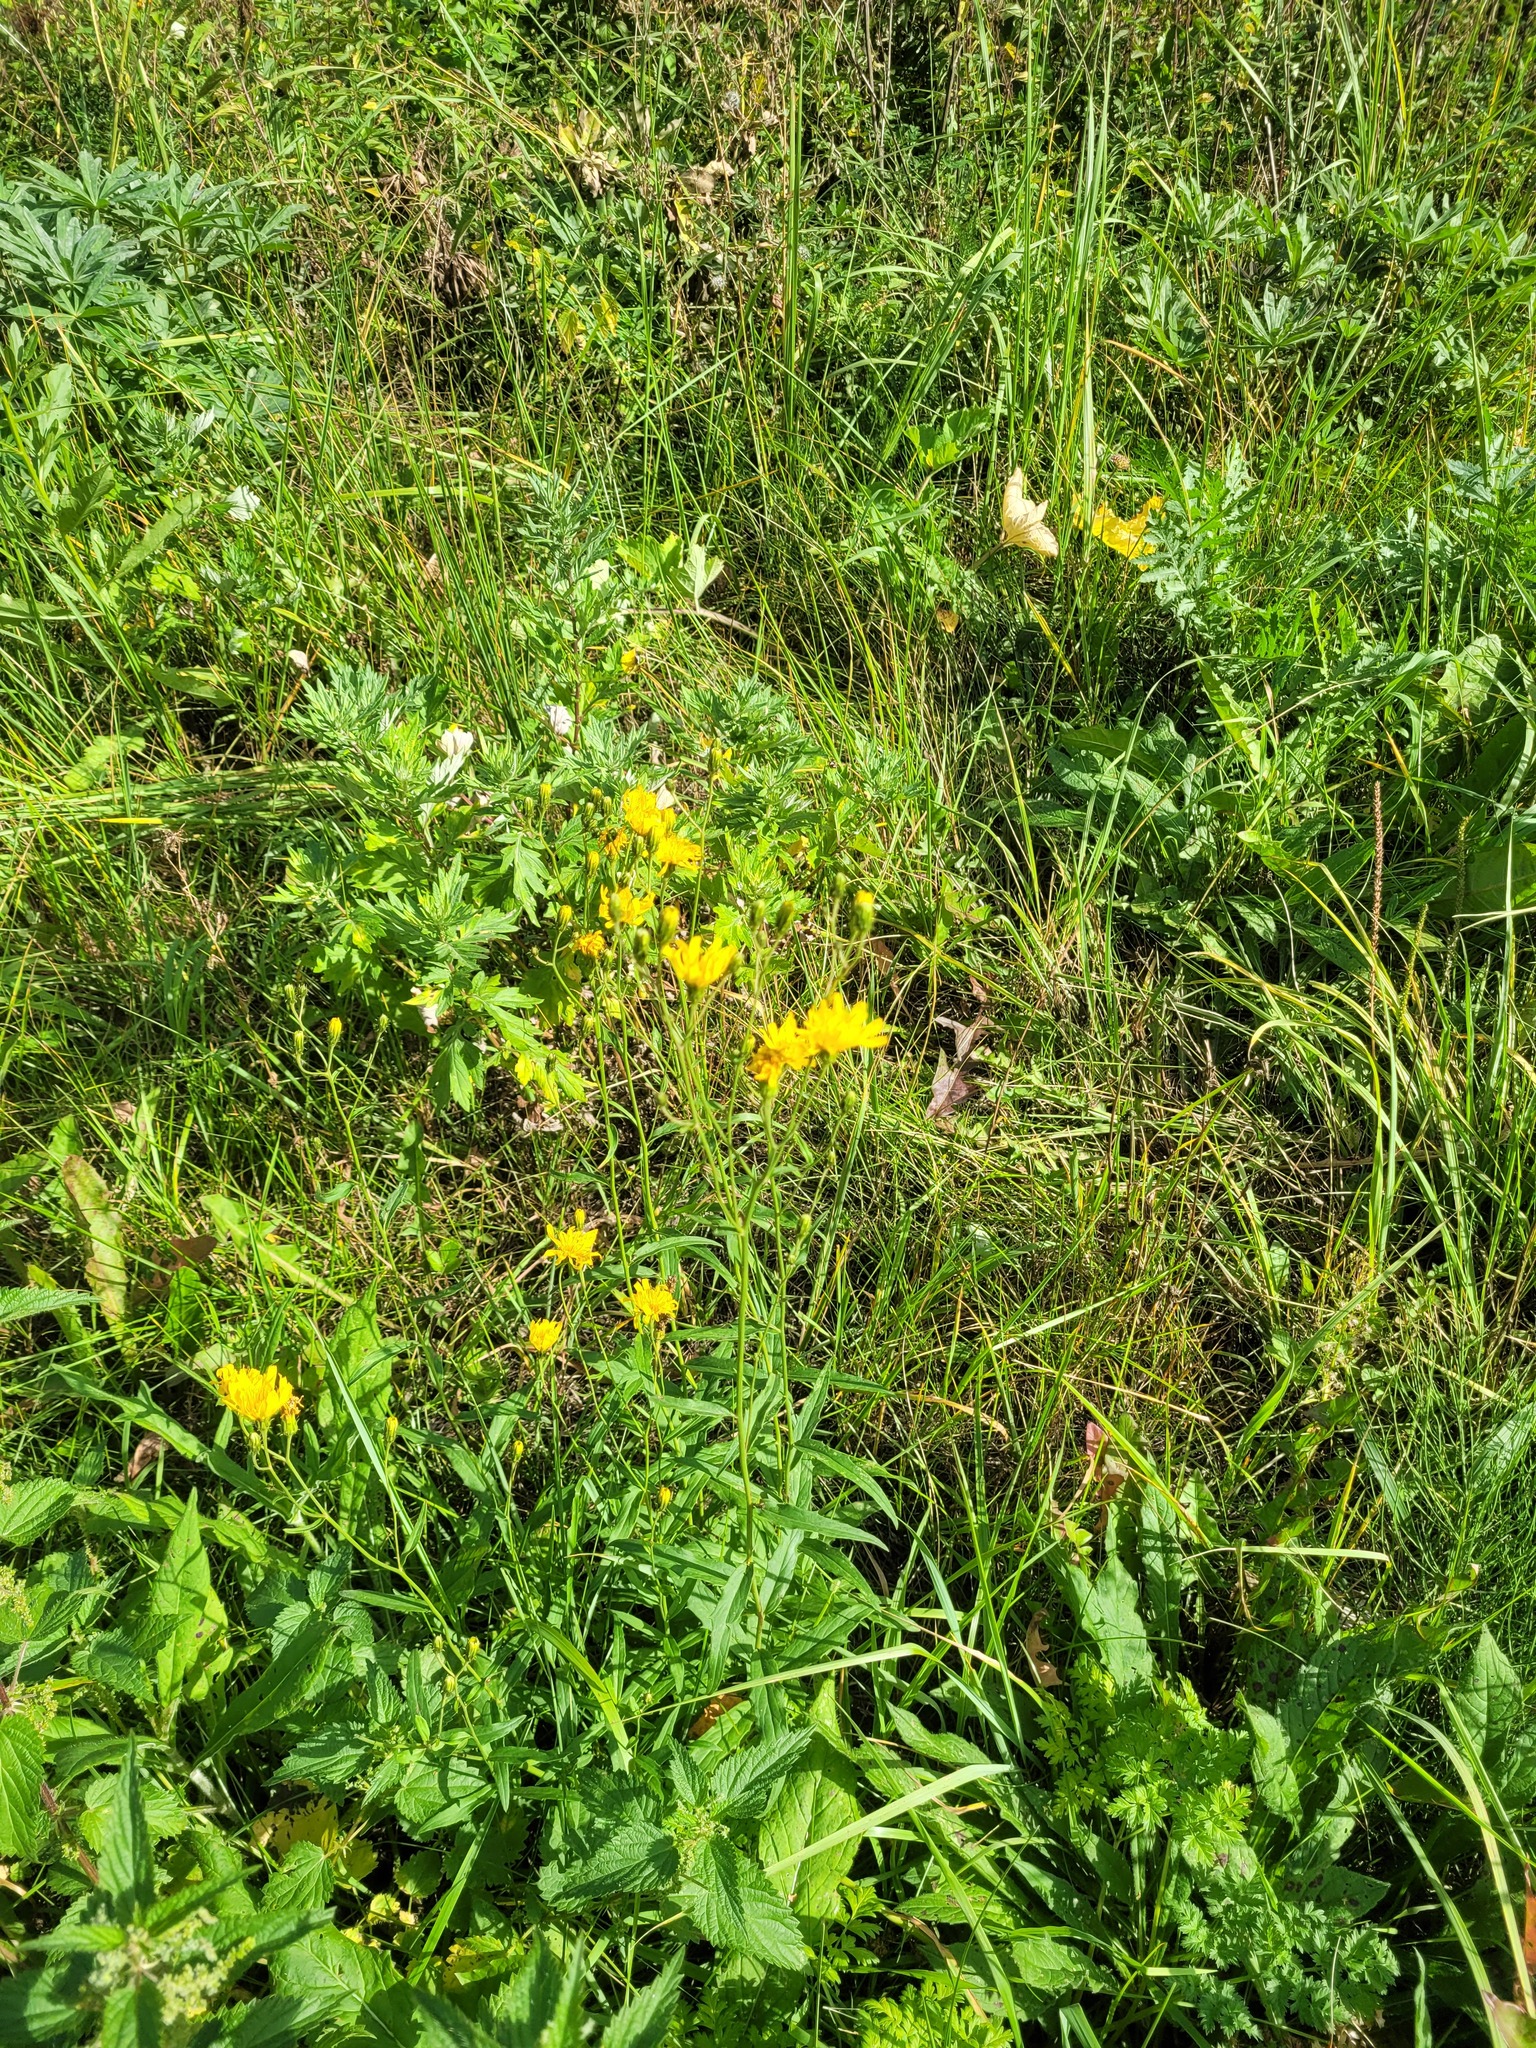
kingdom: Plantae
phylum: Tracheophyta
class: Magnoliopsida
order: Asterales
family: Asteraceae
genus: Hieracium
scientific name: Hieracium umbellatum
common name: Northern hawkweed
